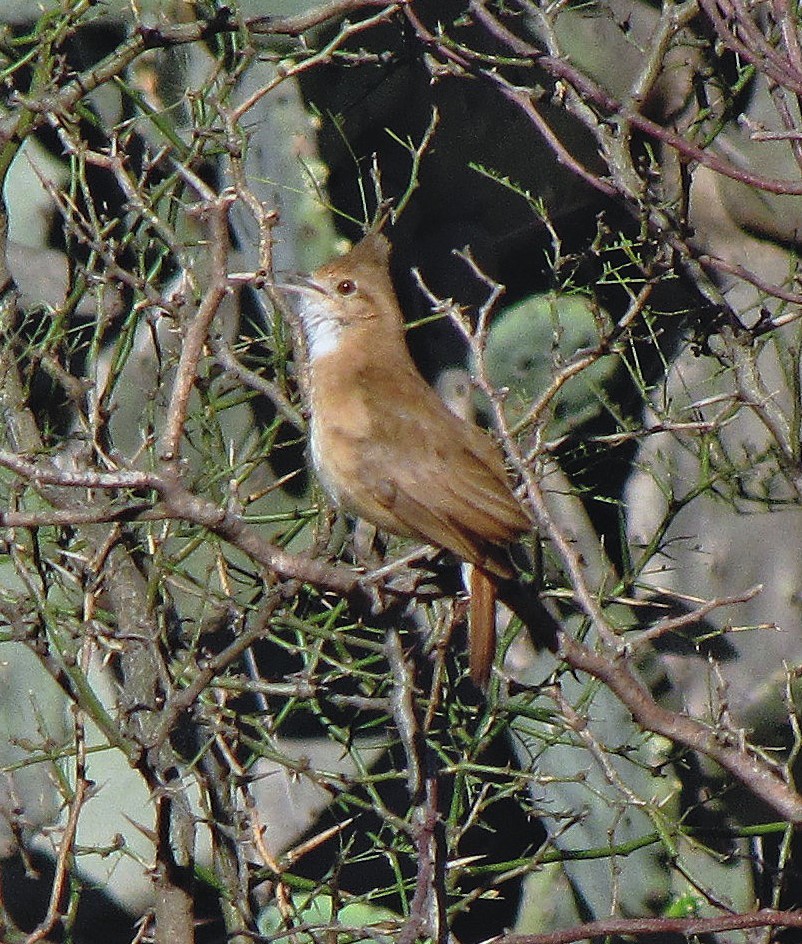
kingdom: Animalia
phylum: Chordata
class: Aves
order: Passeriformes
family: Furnariidae
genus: Furnarius
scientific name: Furnarius cristatus
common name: Crested hornero
